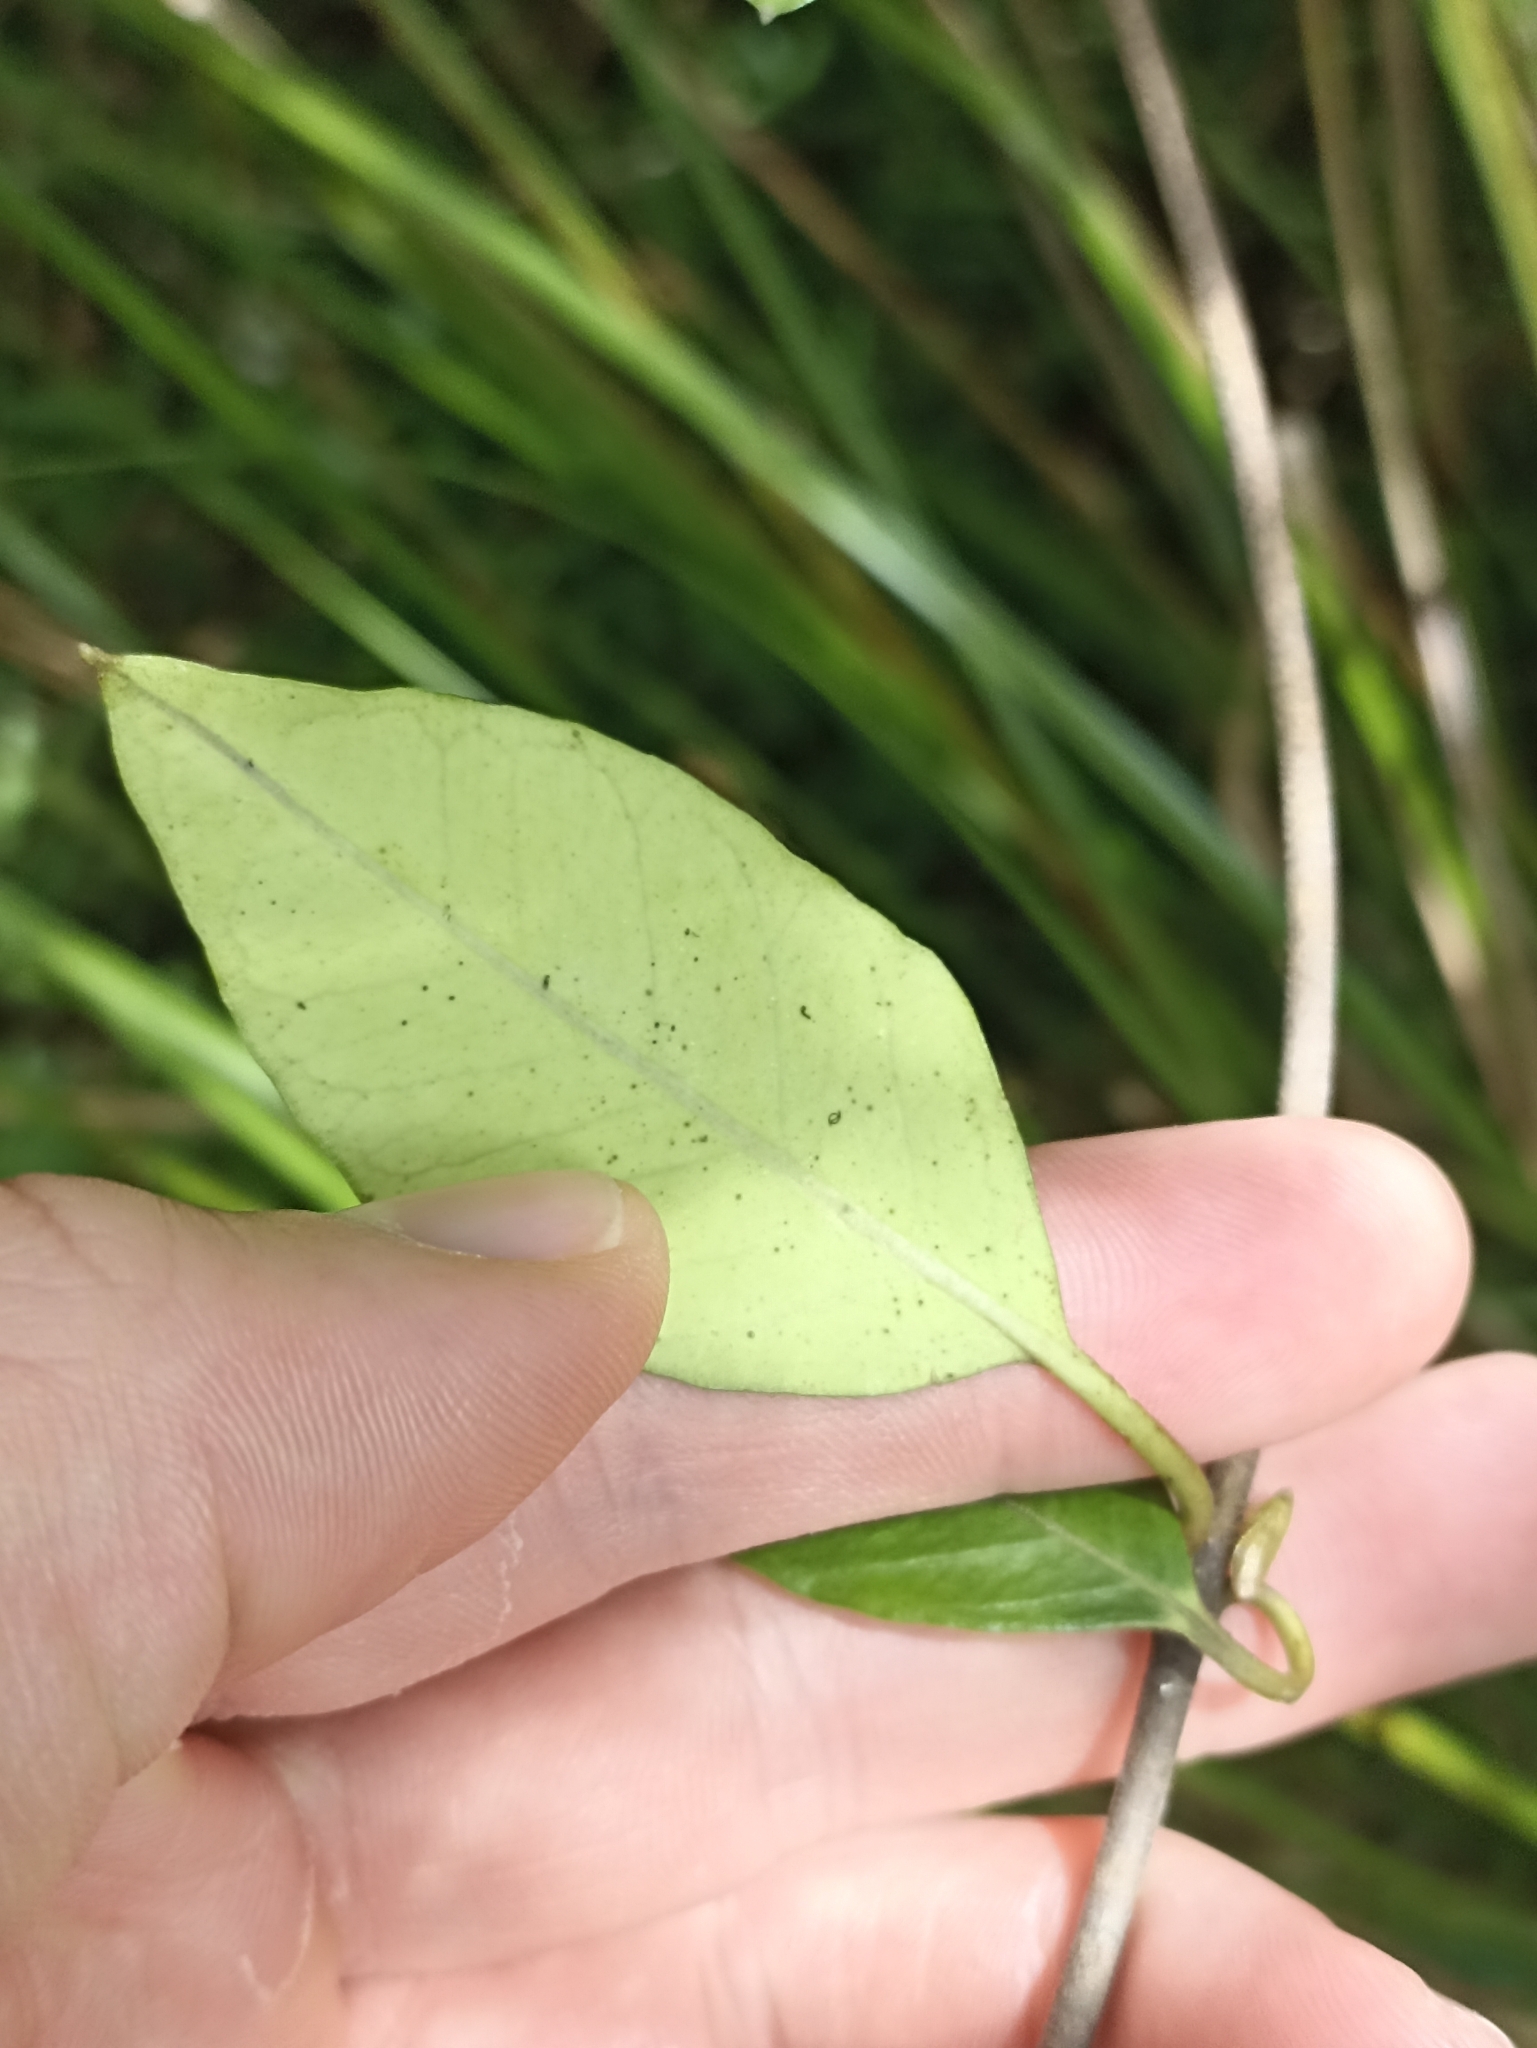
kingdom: Plantae
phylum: Tracheophyta
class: Magnoliopsida
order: Gentianales
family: Apocynaceae
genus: Parsonsia
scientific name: Parsonsia heterophylla
